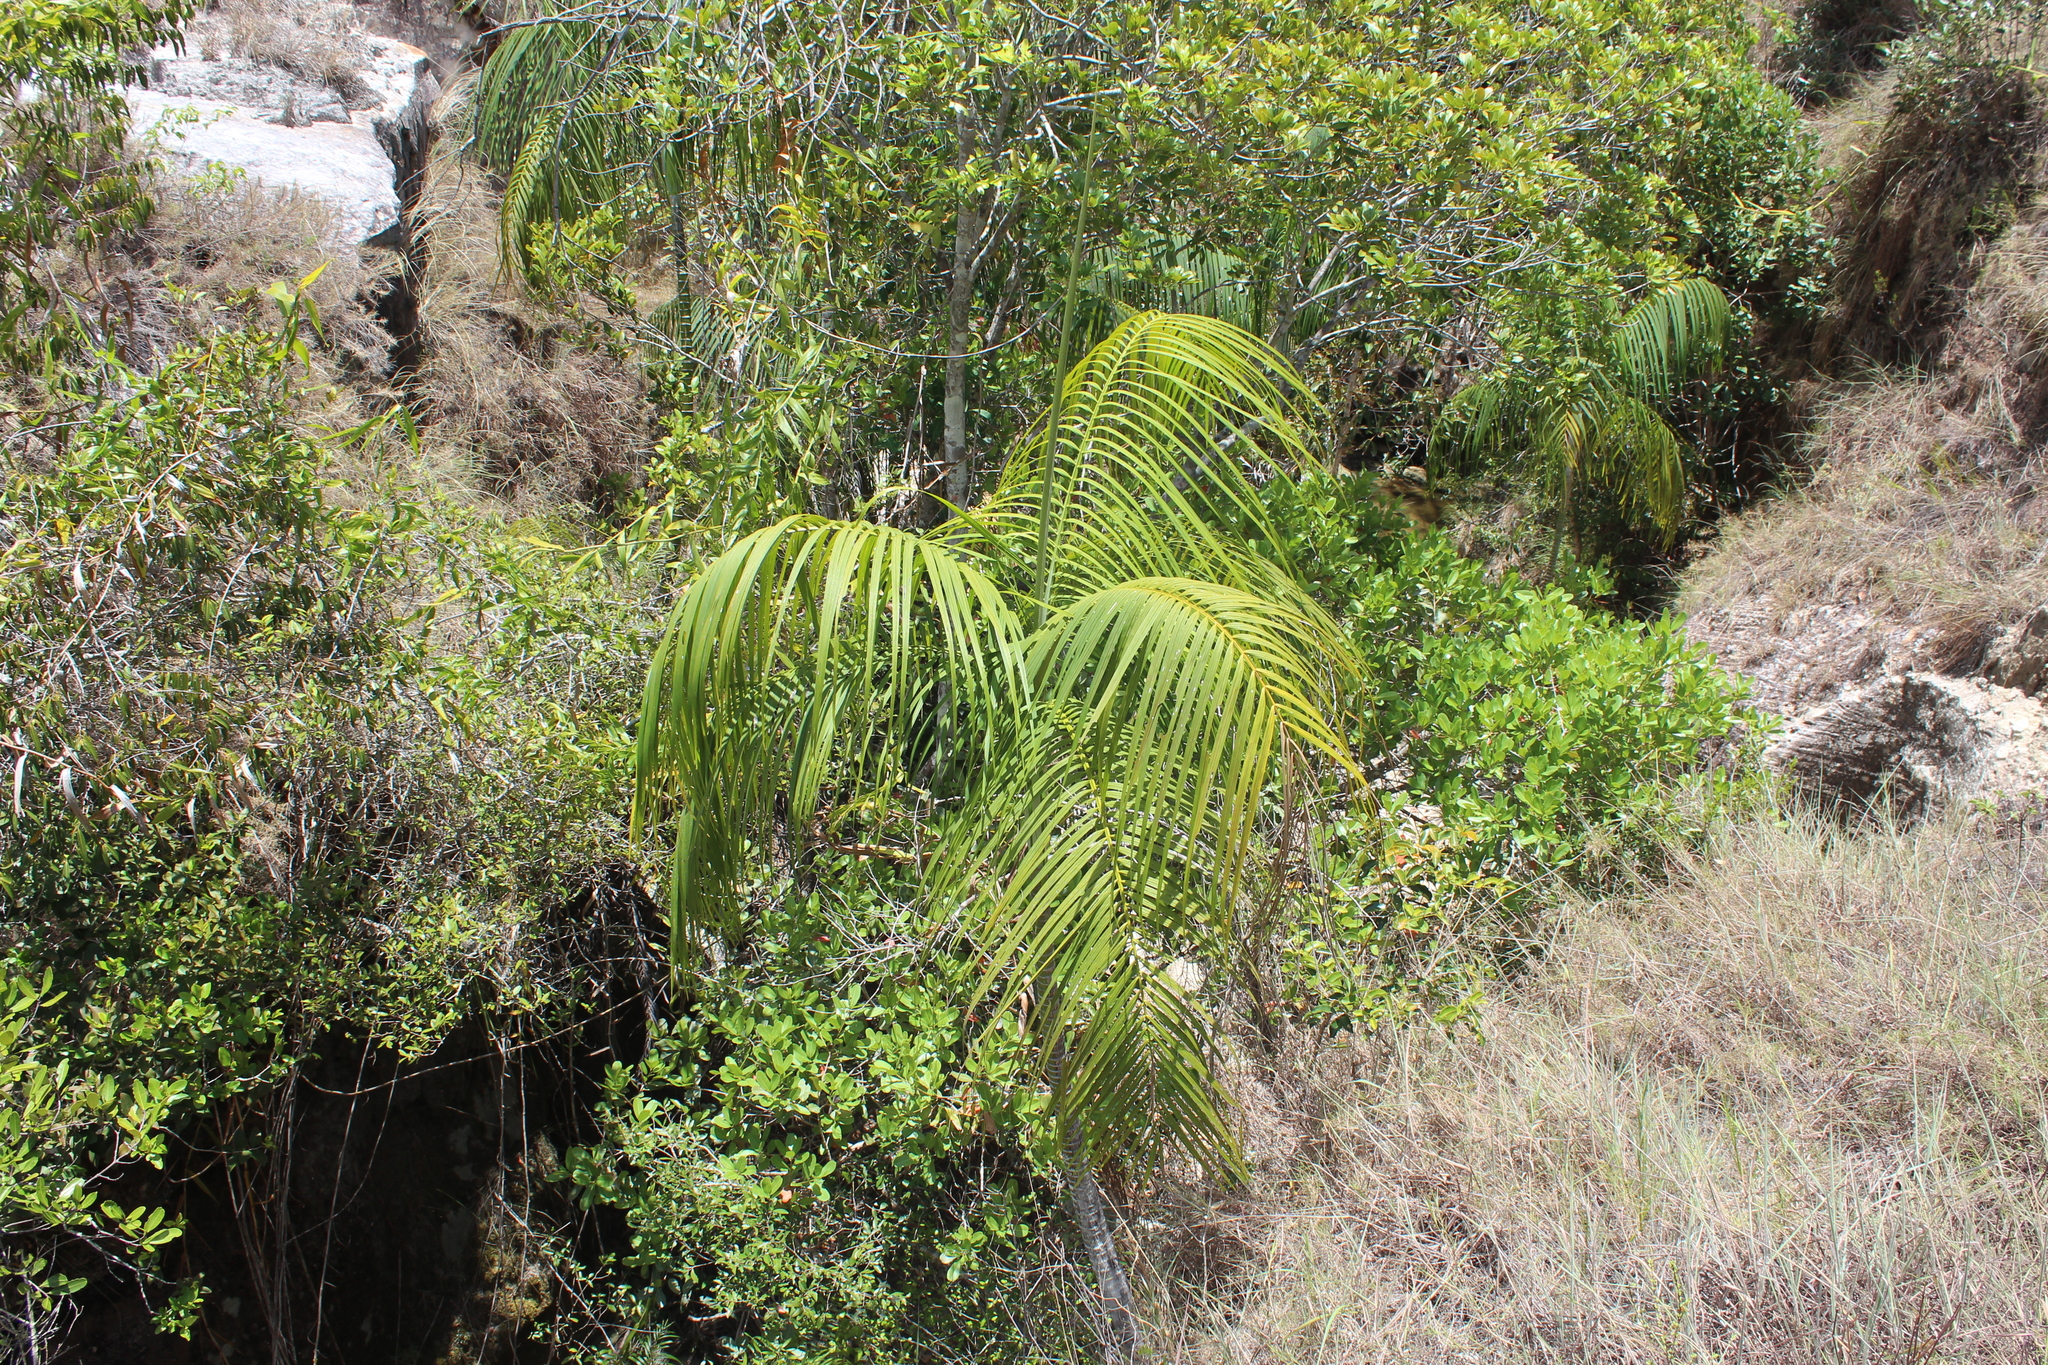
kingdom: Plantae
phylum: Tracheophyta
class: Liliopsida
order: Arecales
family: Arecaceae
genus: Dypsis
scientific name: Dypsis onilahensis
